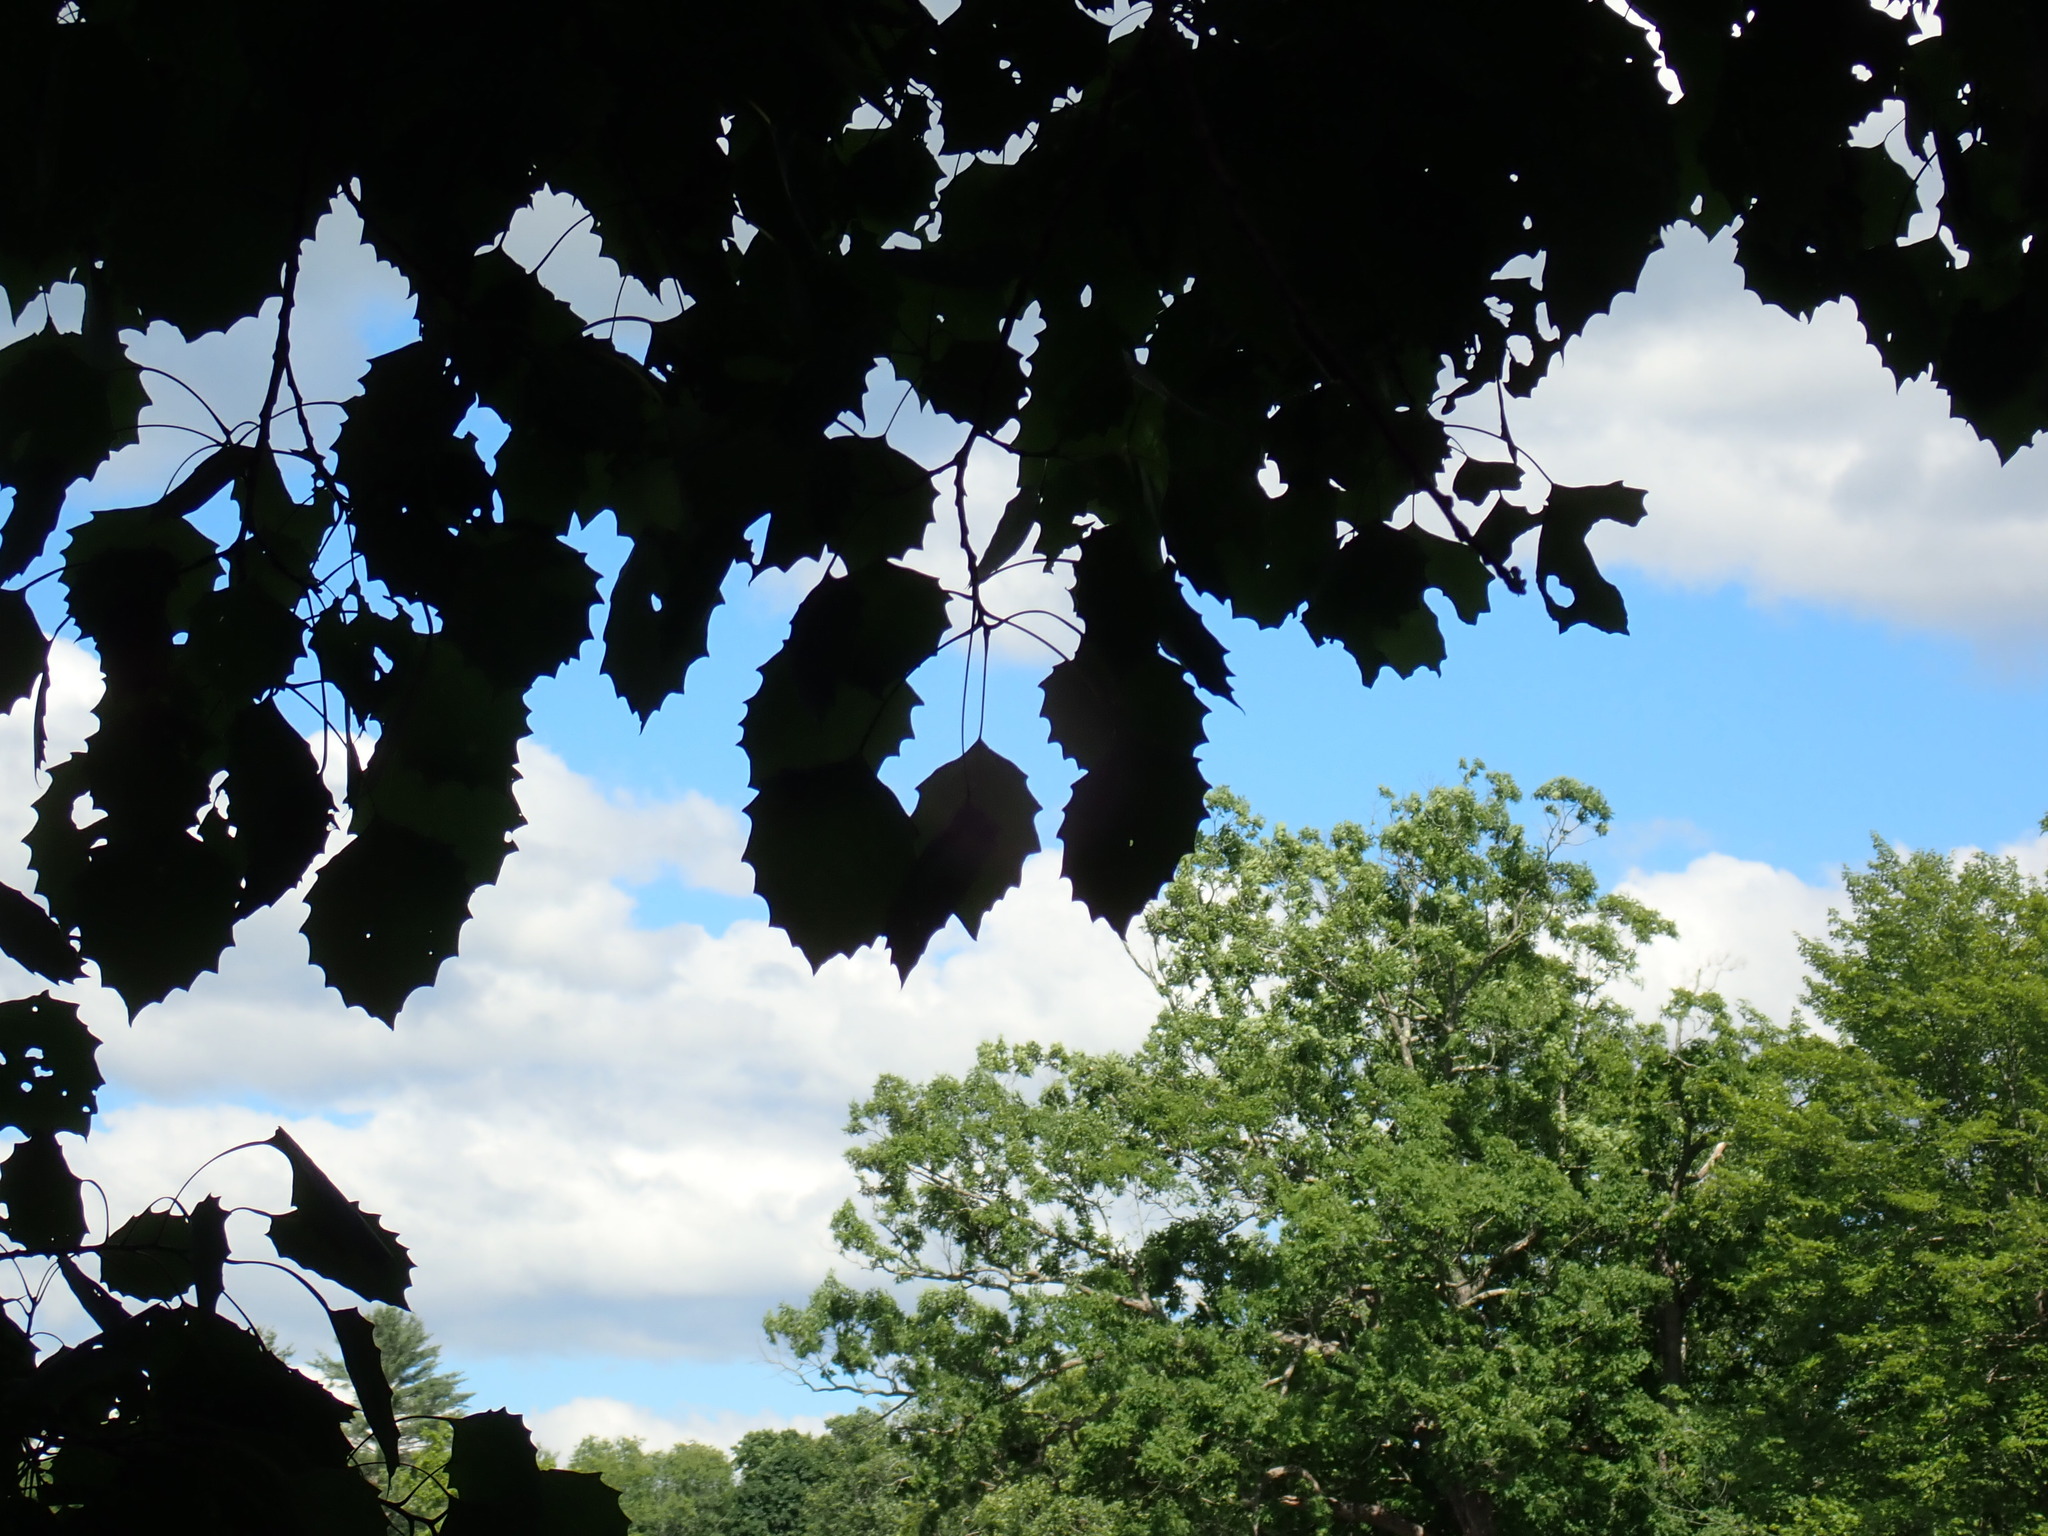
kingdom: Plantae
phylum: Tracheophyta
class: Magnoliopsida
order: Malpighiales
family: Salicaceae
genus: Populus
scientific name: Populus grandidentata
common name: Bigtooth aspen
